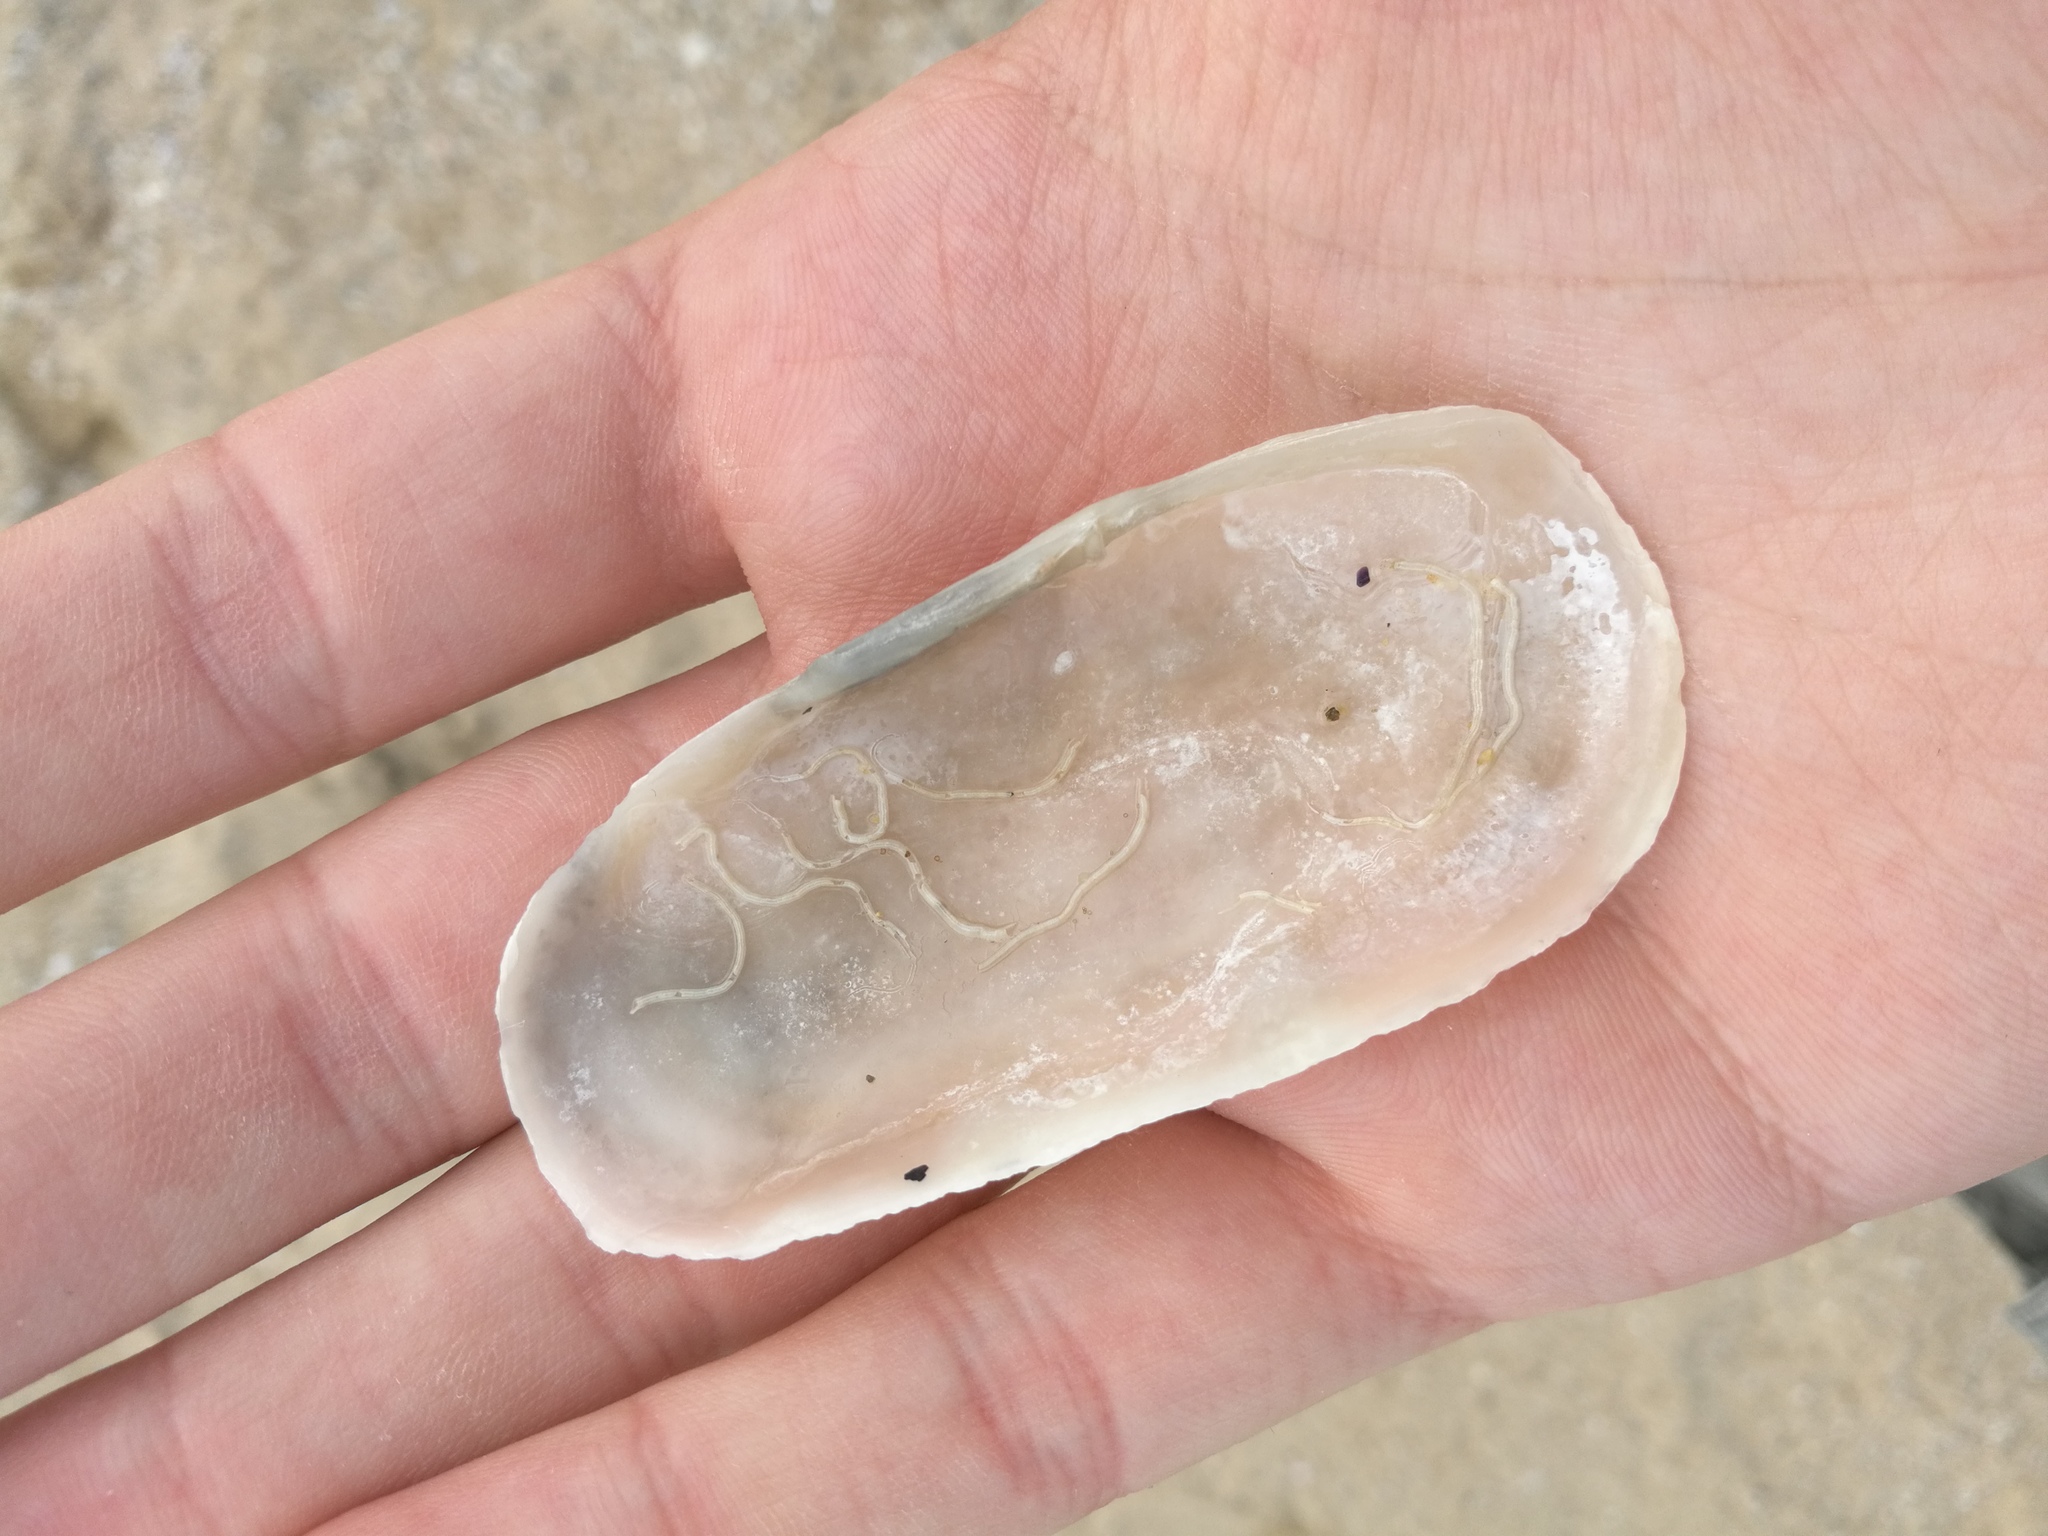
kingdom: Animalia
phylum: Mollusca
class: Bivalvia
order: Cardiida
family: Solecurtidae
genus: Solecurtus
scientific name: Solecurtus strigilatus
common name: Rosy razor clam
